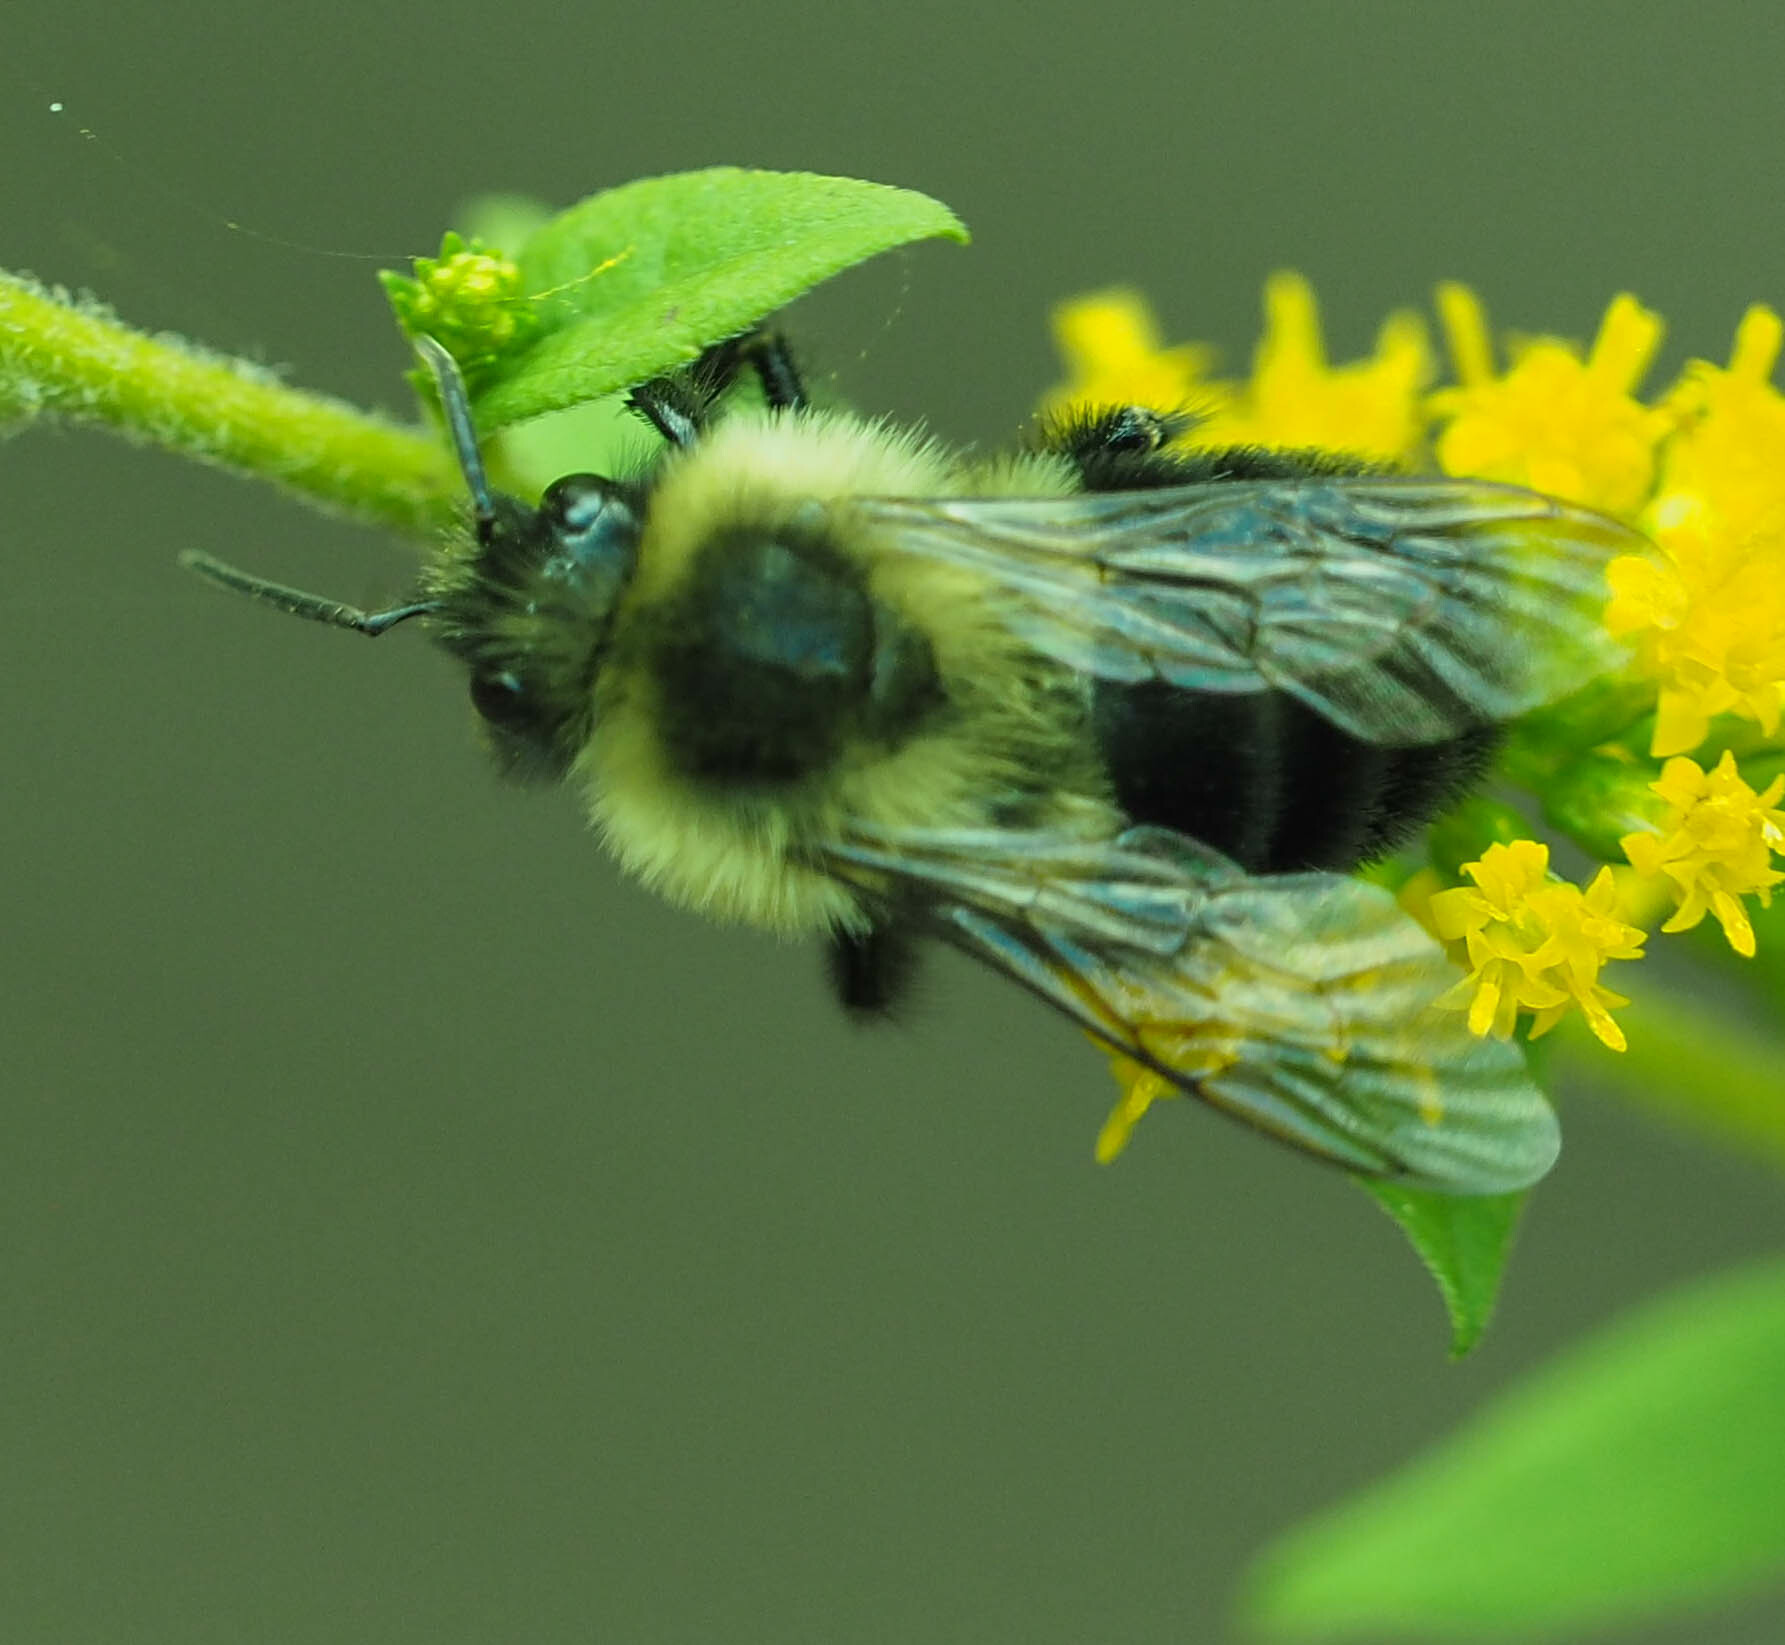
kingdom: Animalia
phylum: Arthropoda
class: Insecta
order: Hymenoptera
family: Apidae
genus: Bombus
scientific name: Bombus impatiens
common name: Common eastern bumble bee
